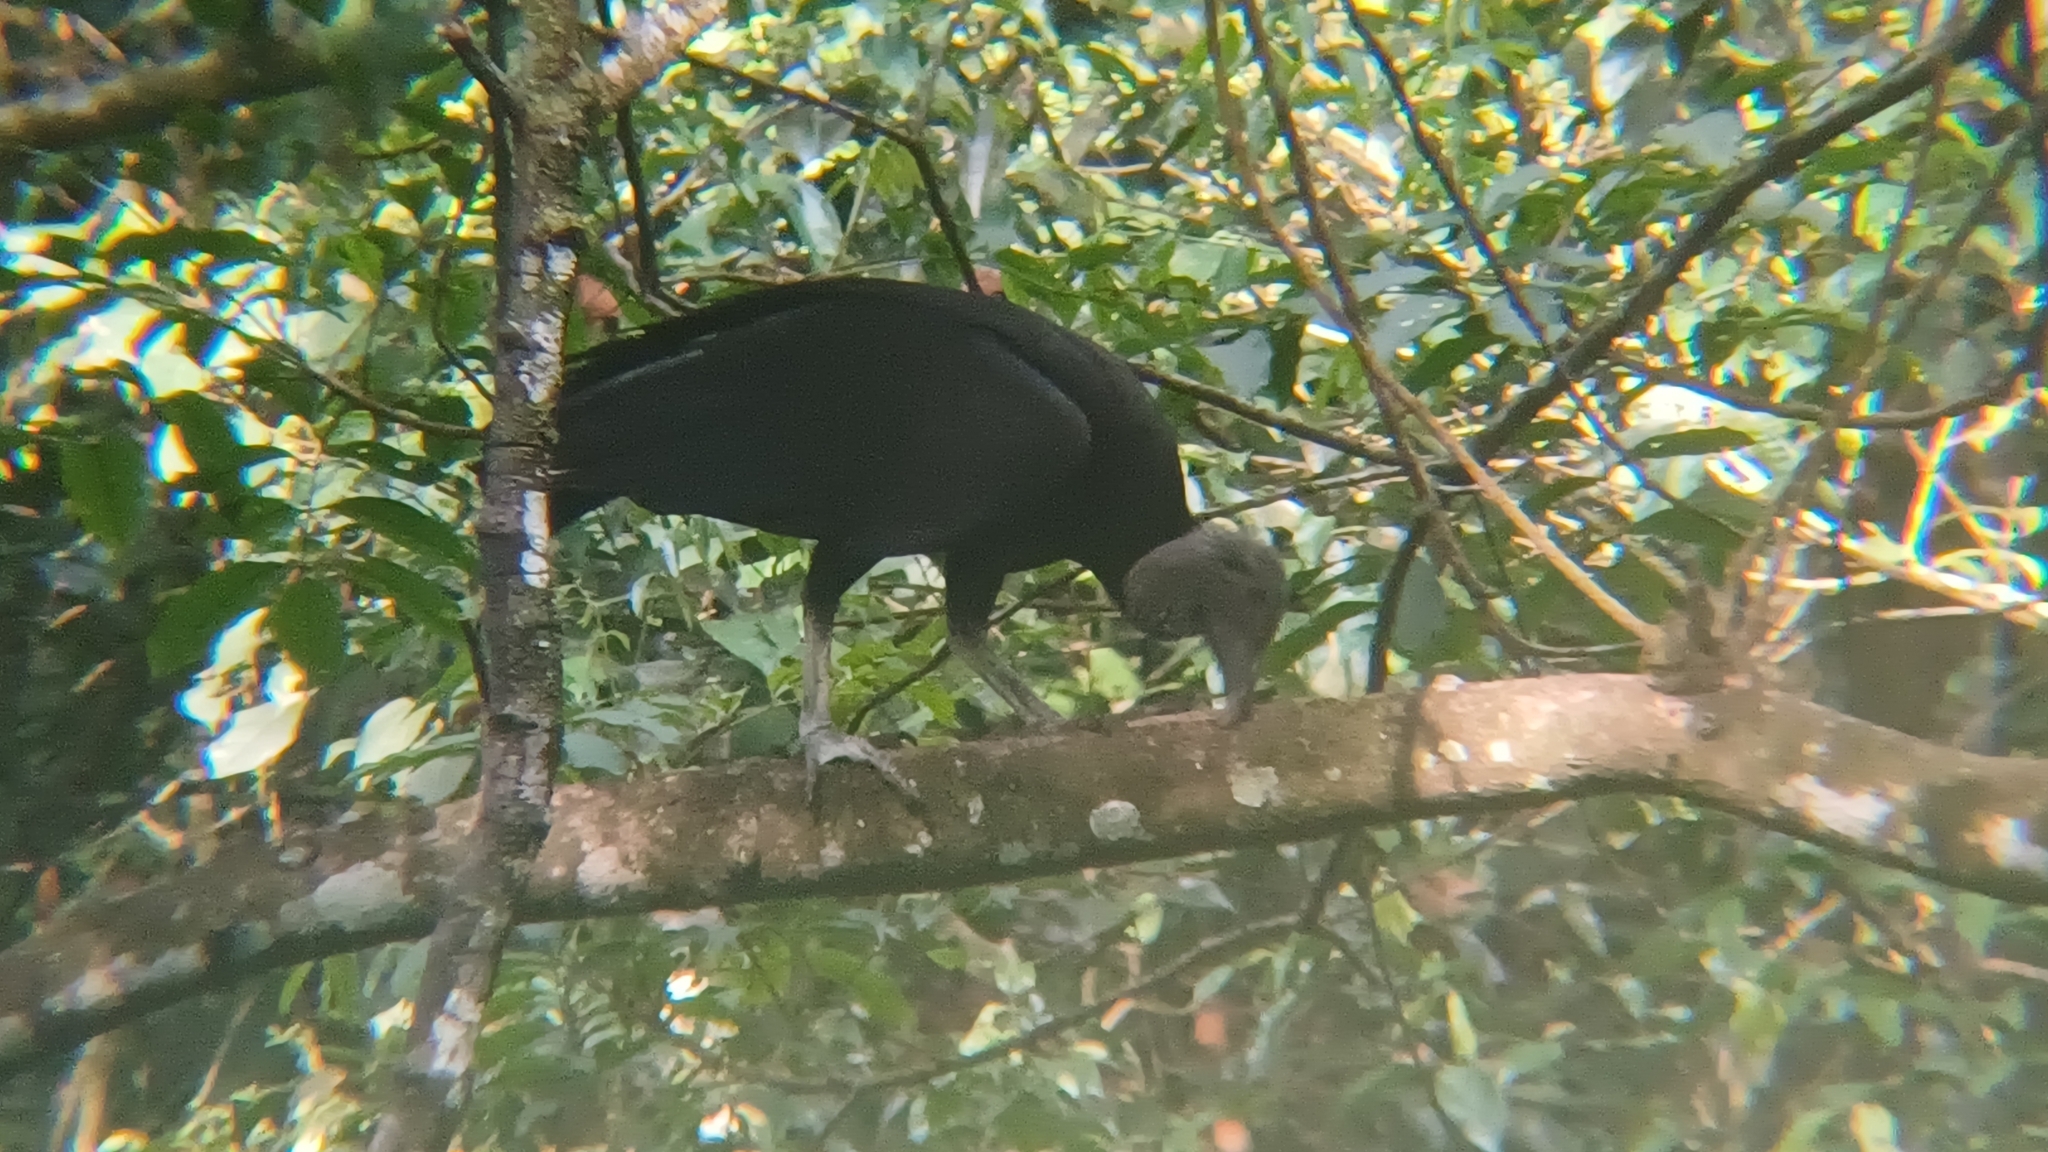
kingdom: Animalia
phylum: Chordata
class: Aves
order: Accipitriformes
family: Cathartidae
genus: Coragyps
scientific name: Coragyps atratus
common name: Black vulture
